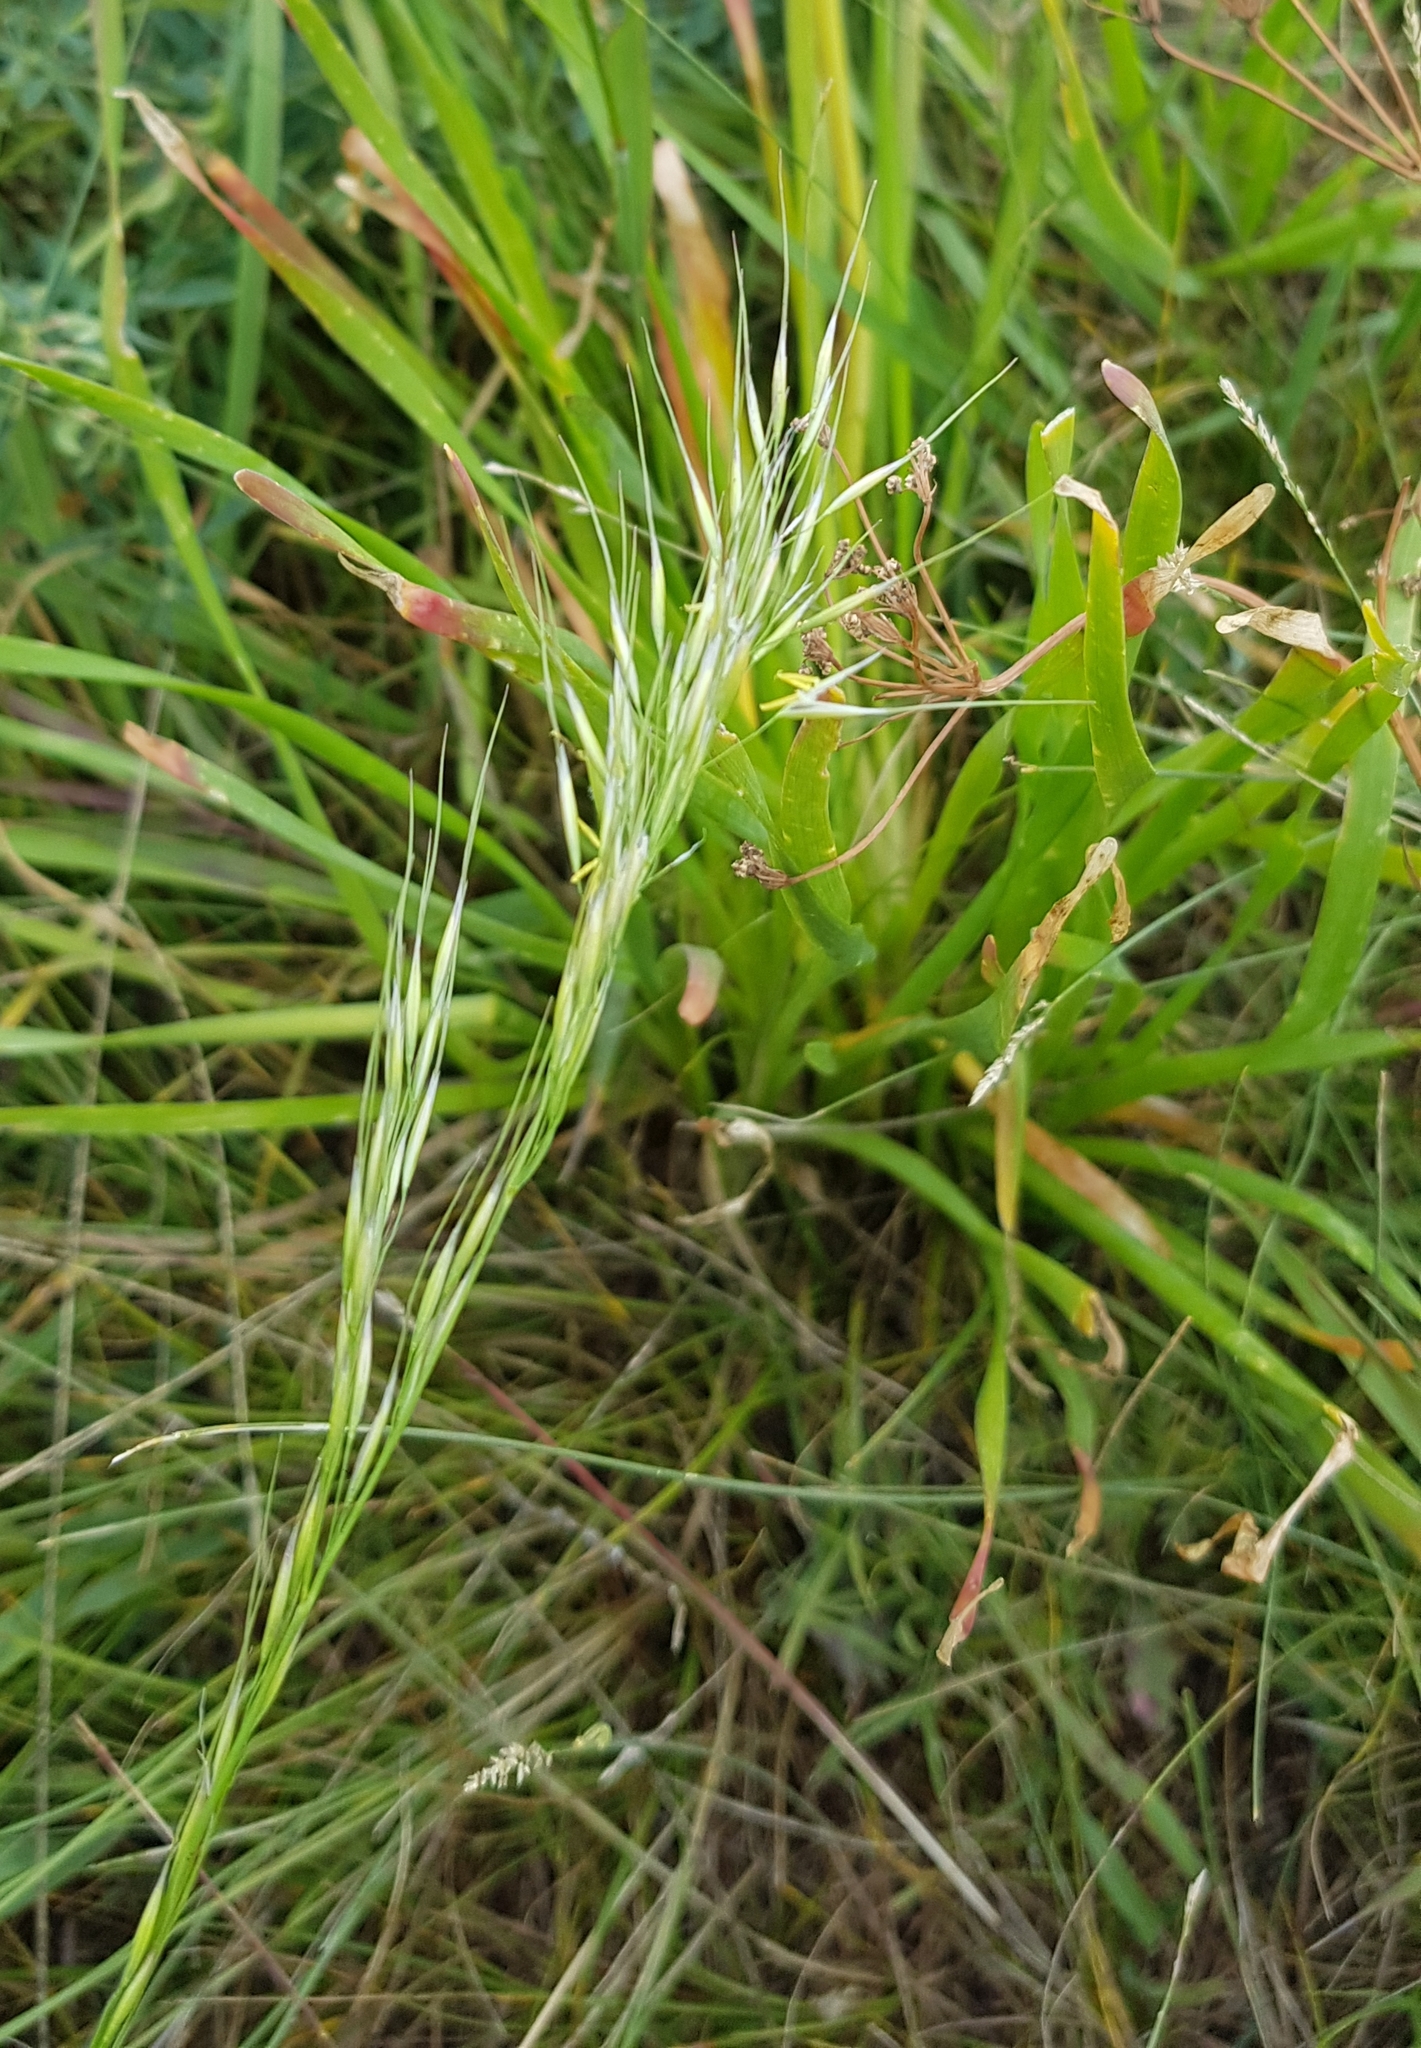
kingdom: Plantae
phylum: Tracheophyta
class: Liliopsida
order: Poales
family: Poaceae
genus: Achnatherum
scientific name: Achnatherum sibiricum
